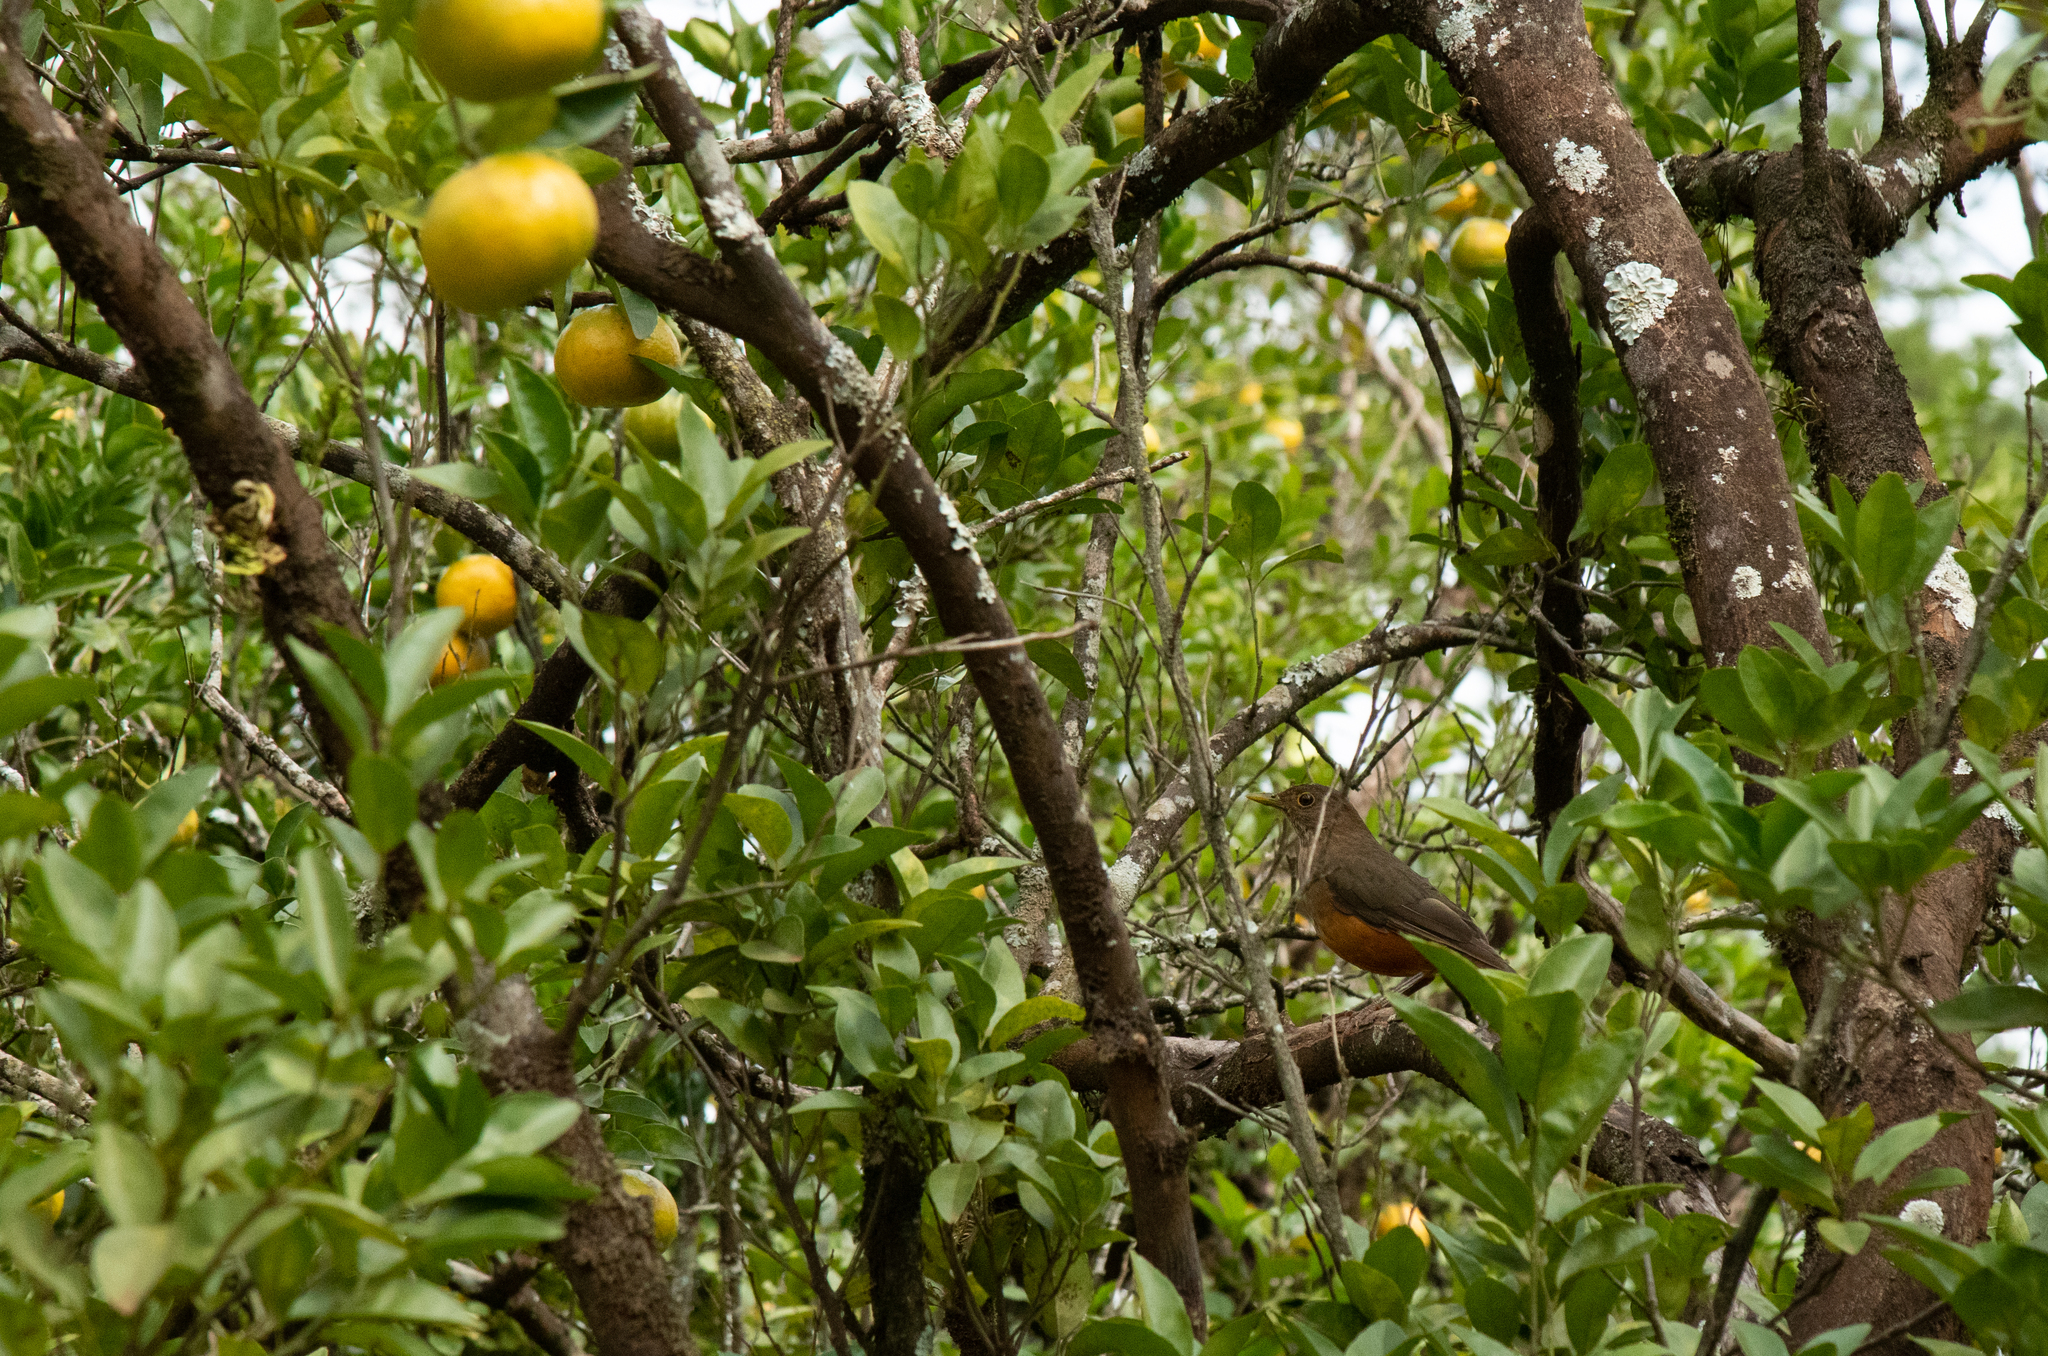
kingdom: Animalia
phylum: Chordata
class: Aves
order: Passeriformes
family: Turdidae
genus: Turdus
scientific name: Turdus rufiventris
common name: Rufous-bellied thrush
